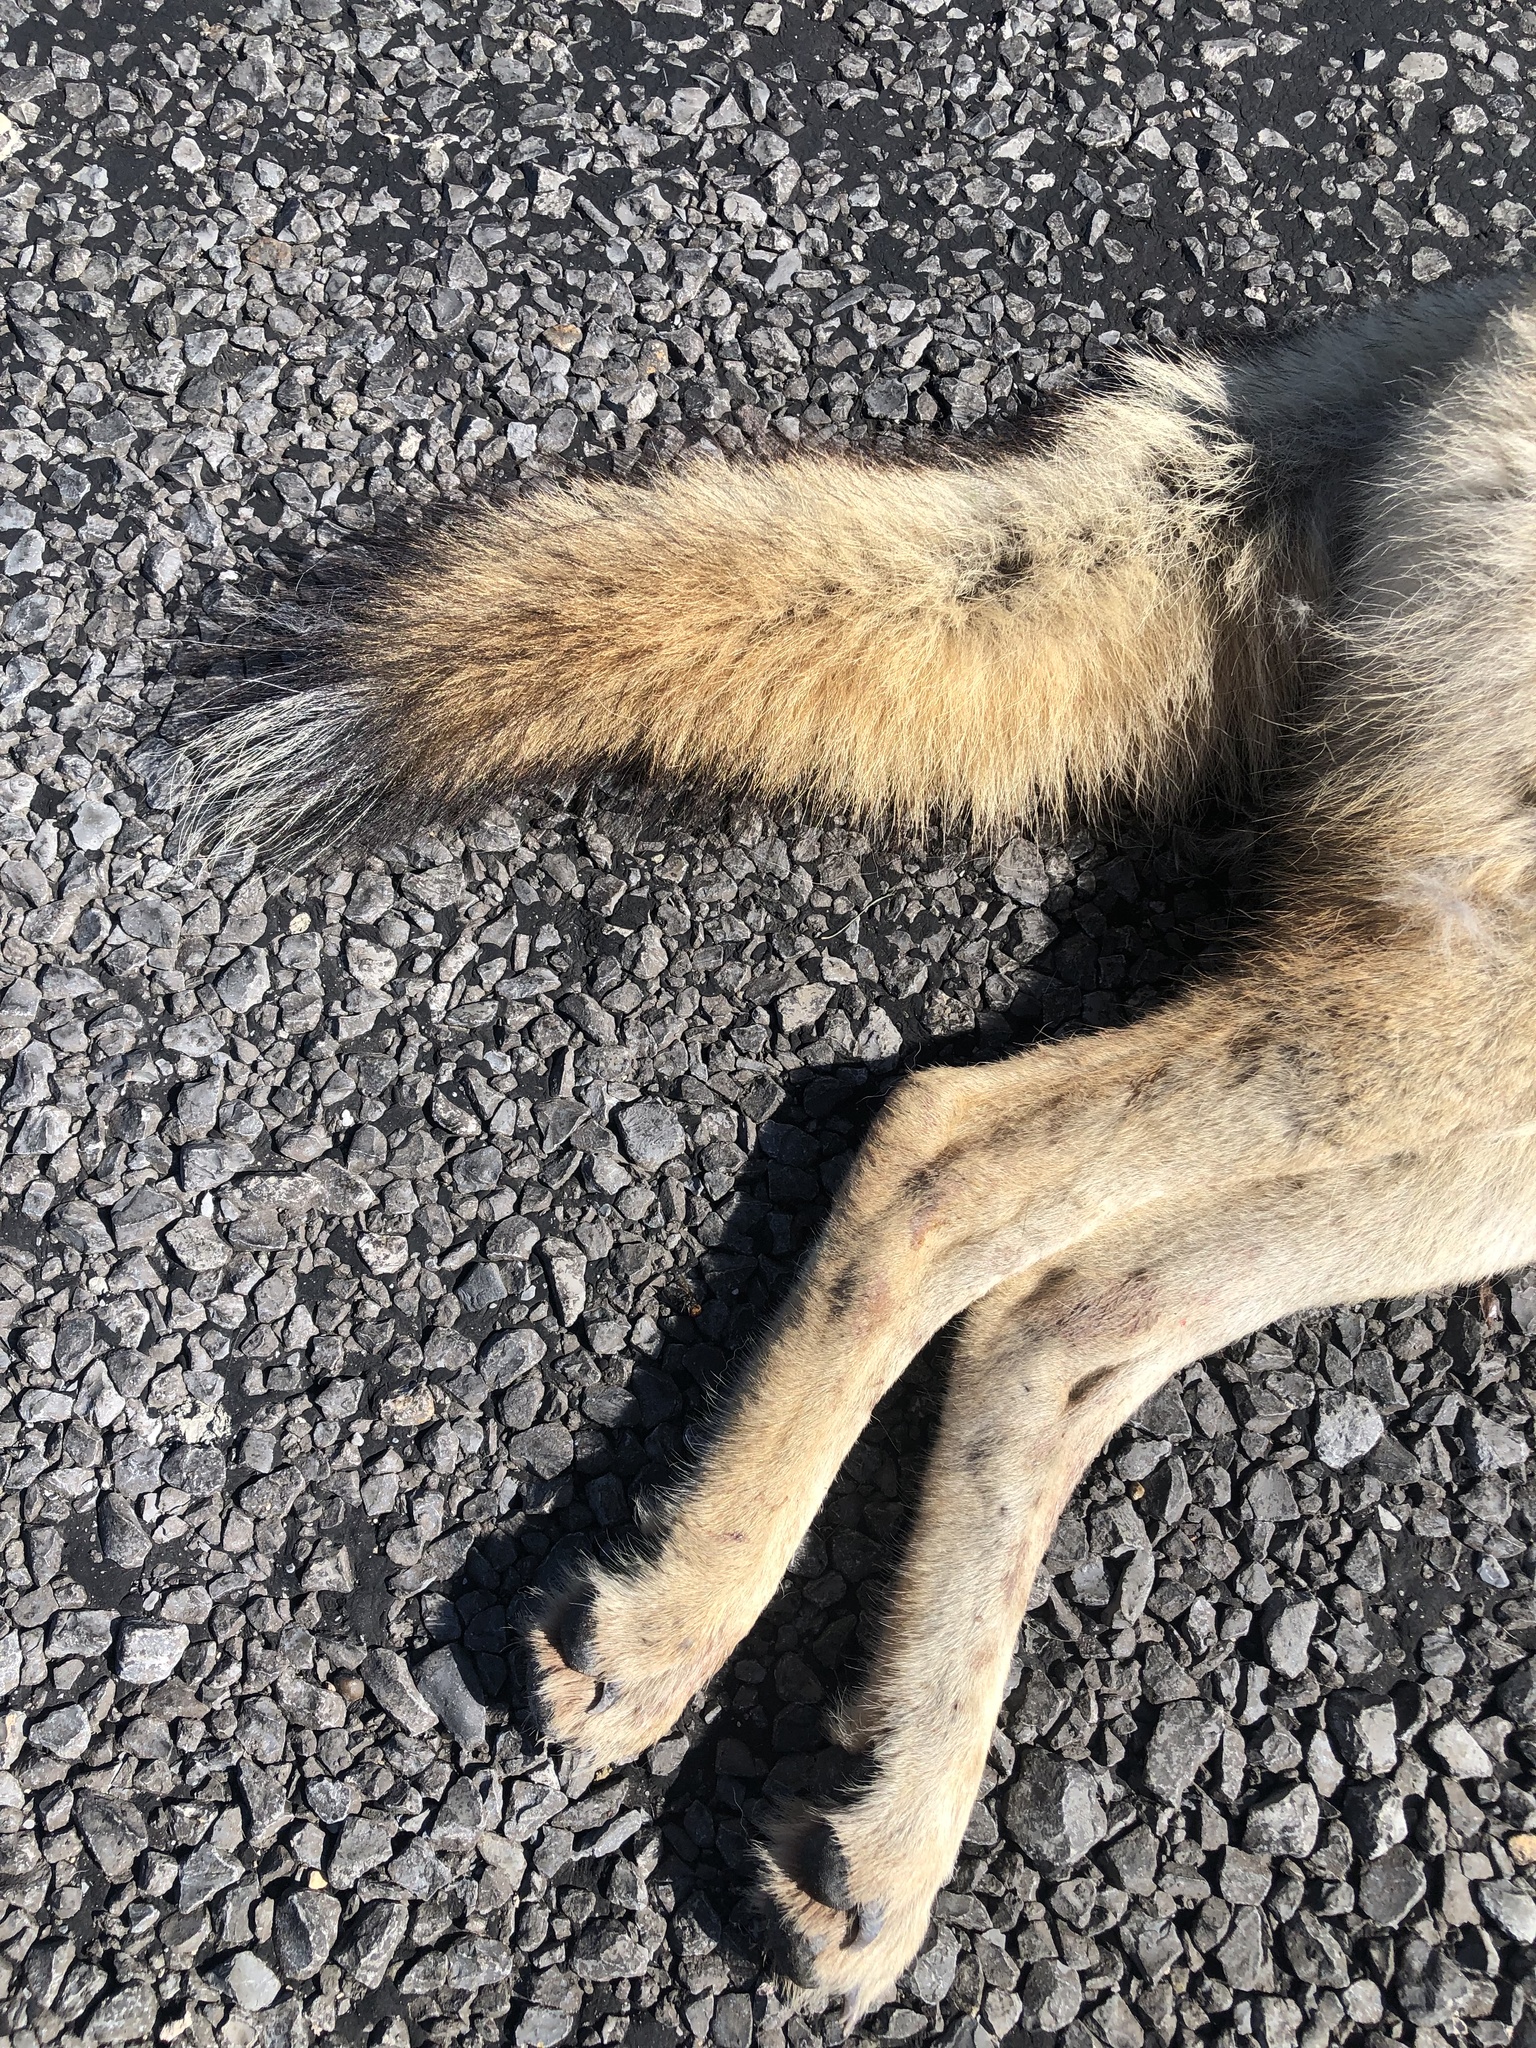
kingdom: Animalia
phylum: Chordata
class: Mammalia
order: Carnivora
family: Canidae
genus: Canis
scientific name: Canis latrans
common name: Coyote
